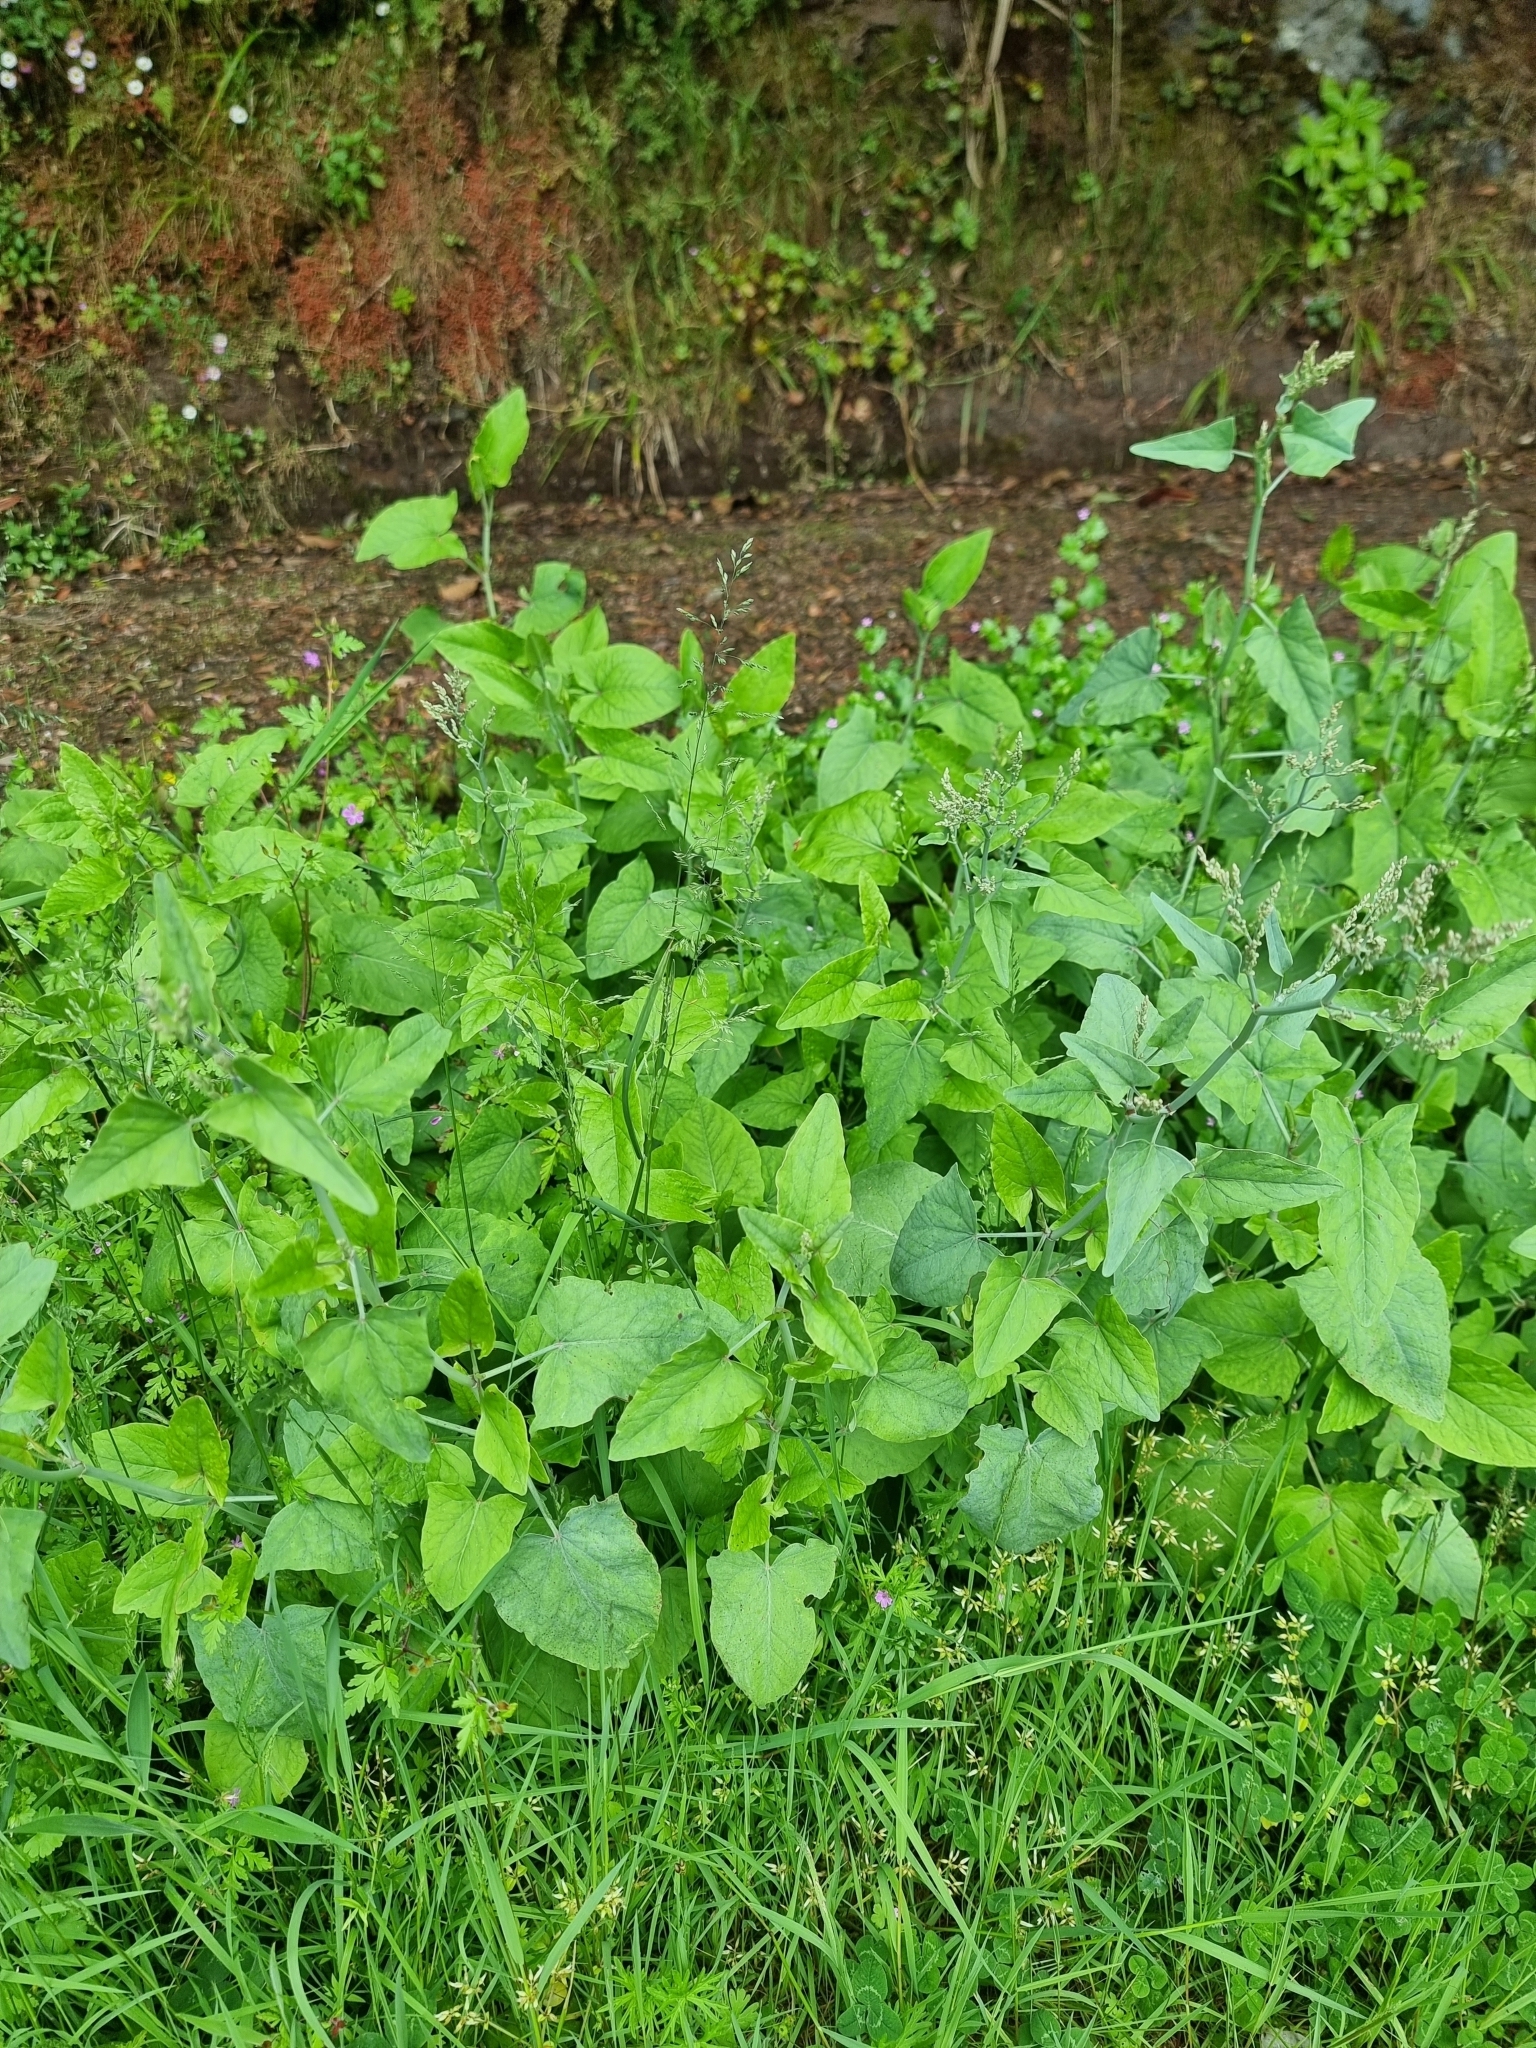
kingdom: Plantae
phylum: Tracheophyta
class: Magnoliopsida
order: Caryophyllales
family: Polygonaceae
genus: Rumex
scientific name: Rumex maderensis
